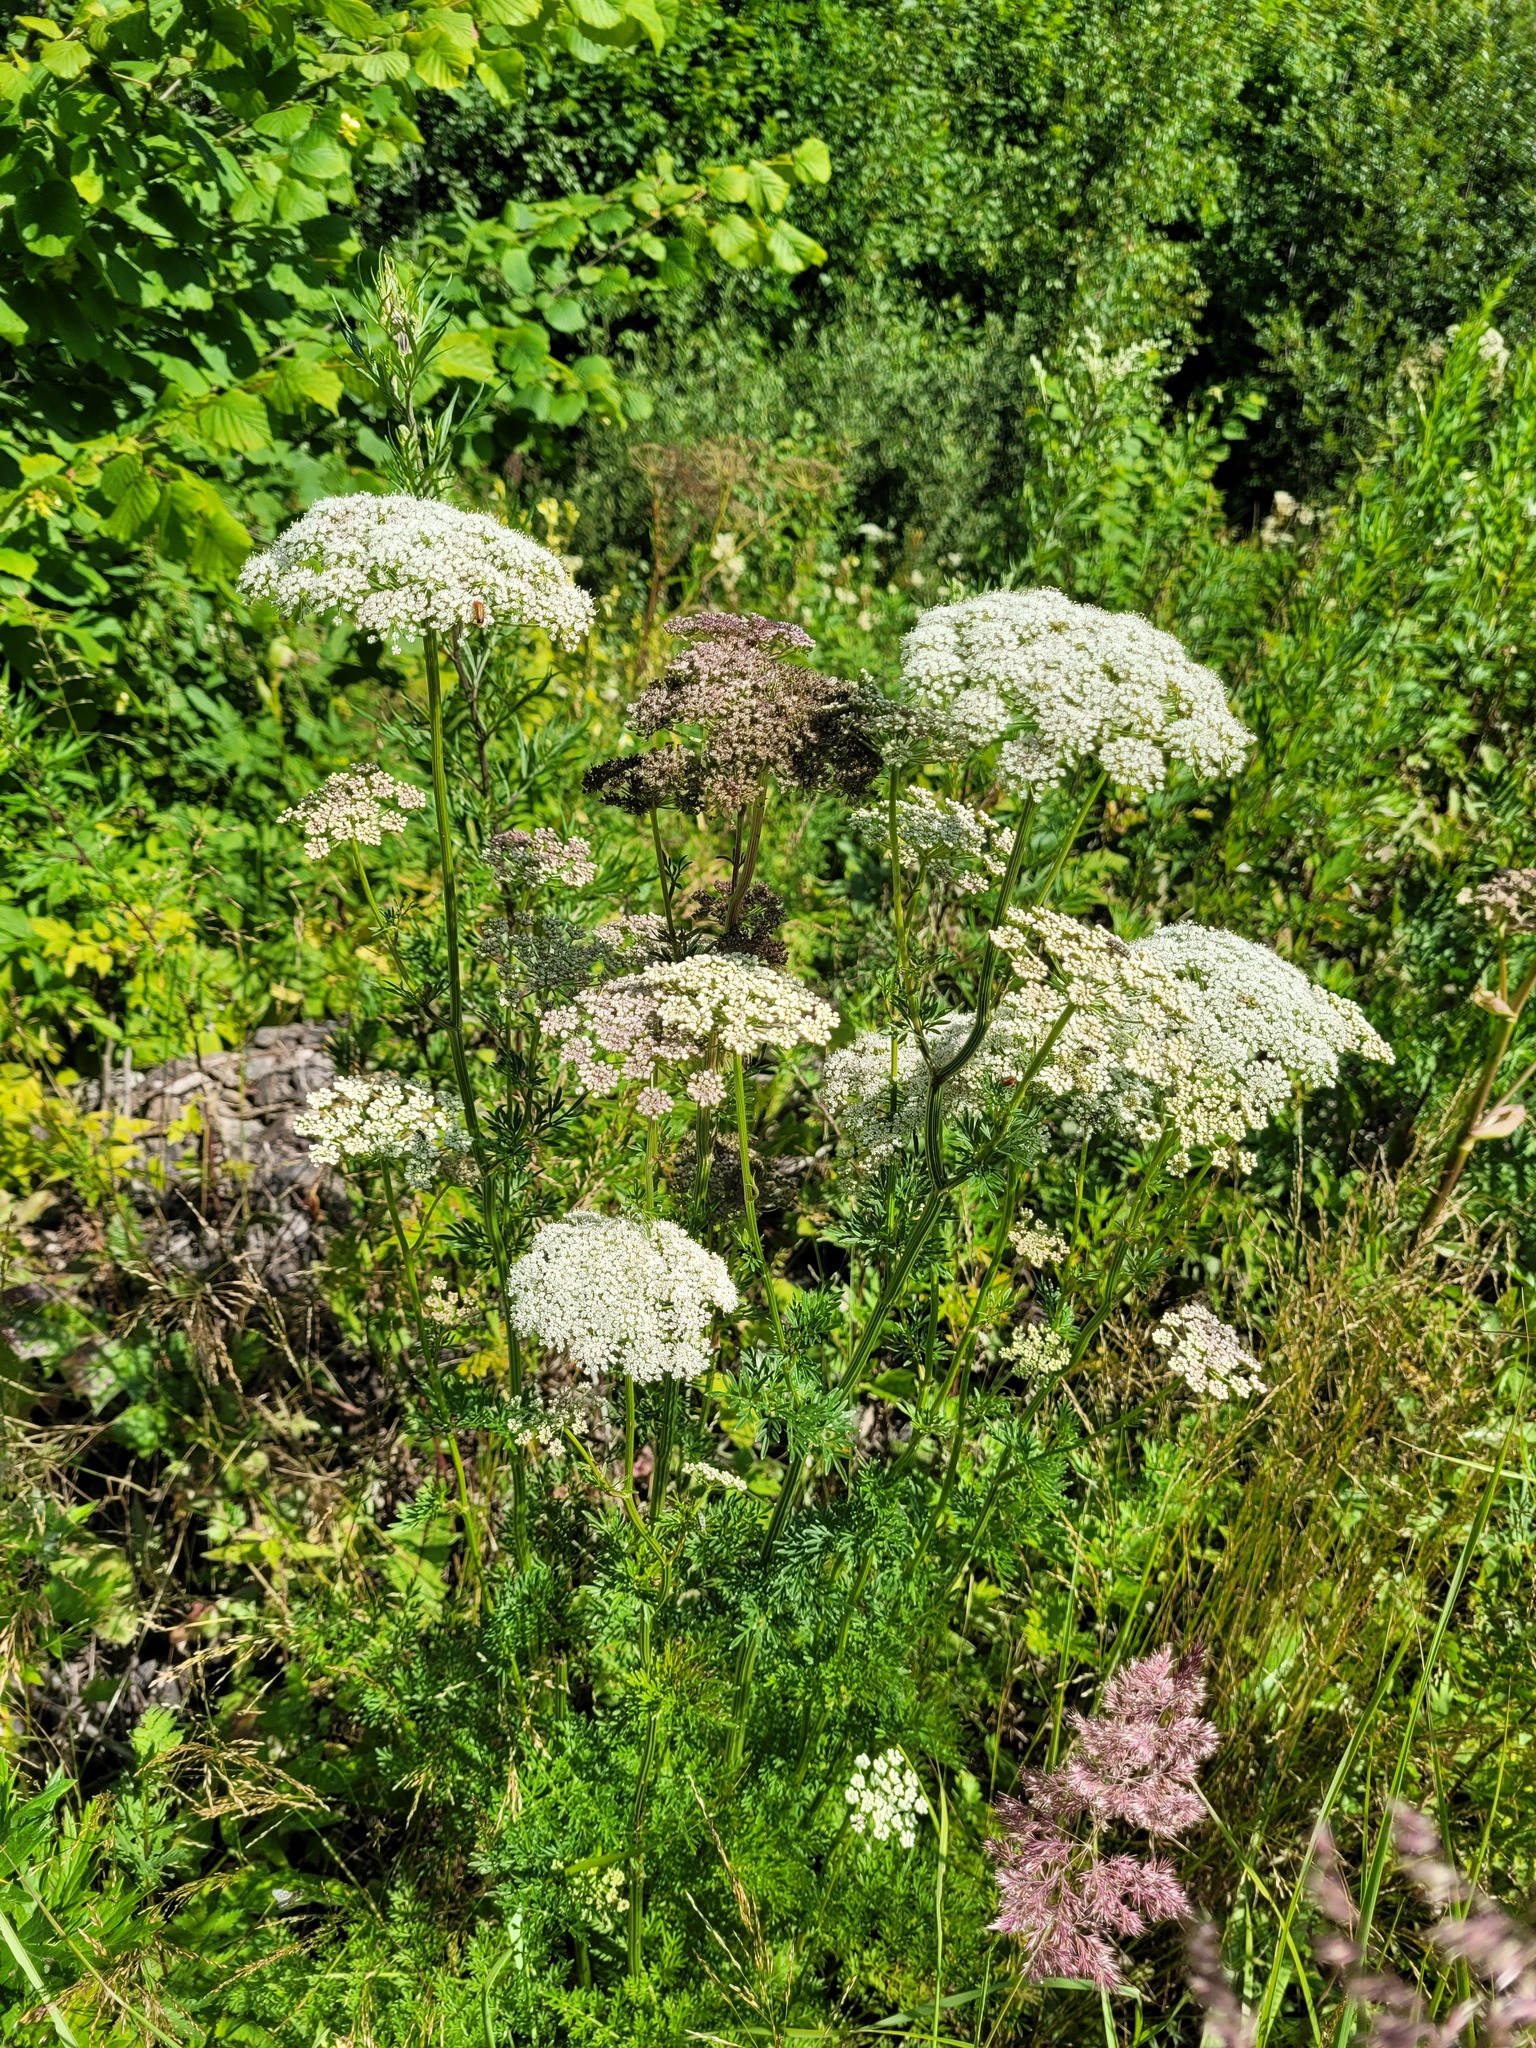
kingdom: Plantae
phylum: Tracheophyta
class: Magnoliopsida
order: Apiales
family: Apiaceae
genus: Selinum
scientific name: Selinum carvifolia
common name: Cambridge milk-parsley
